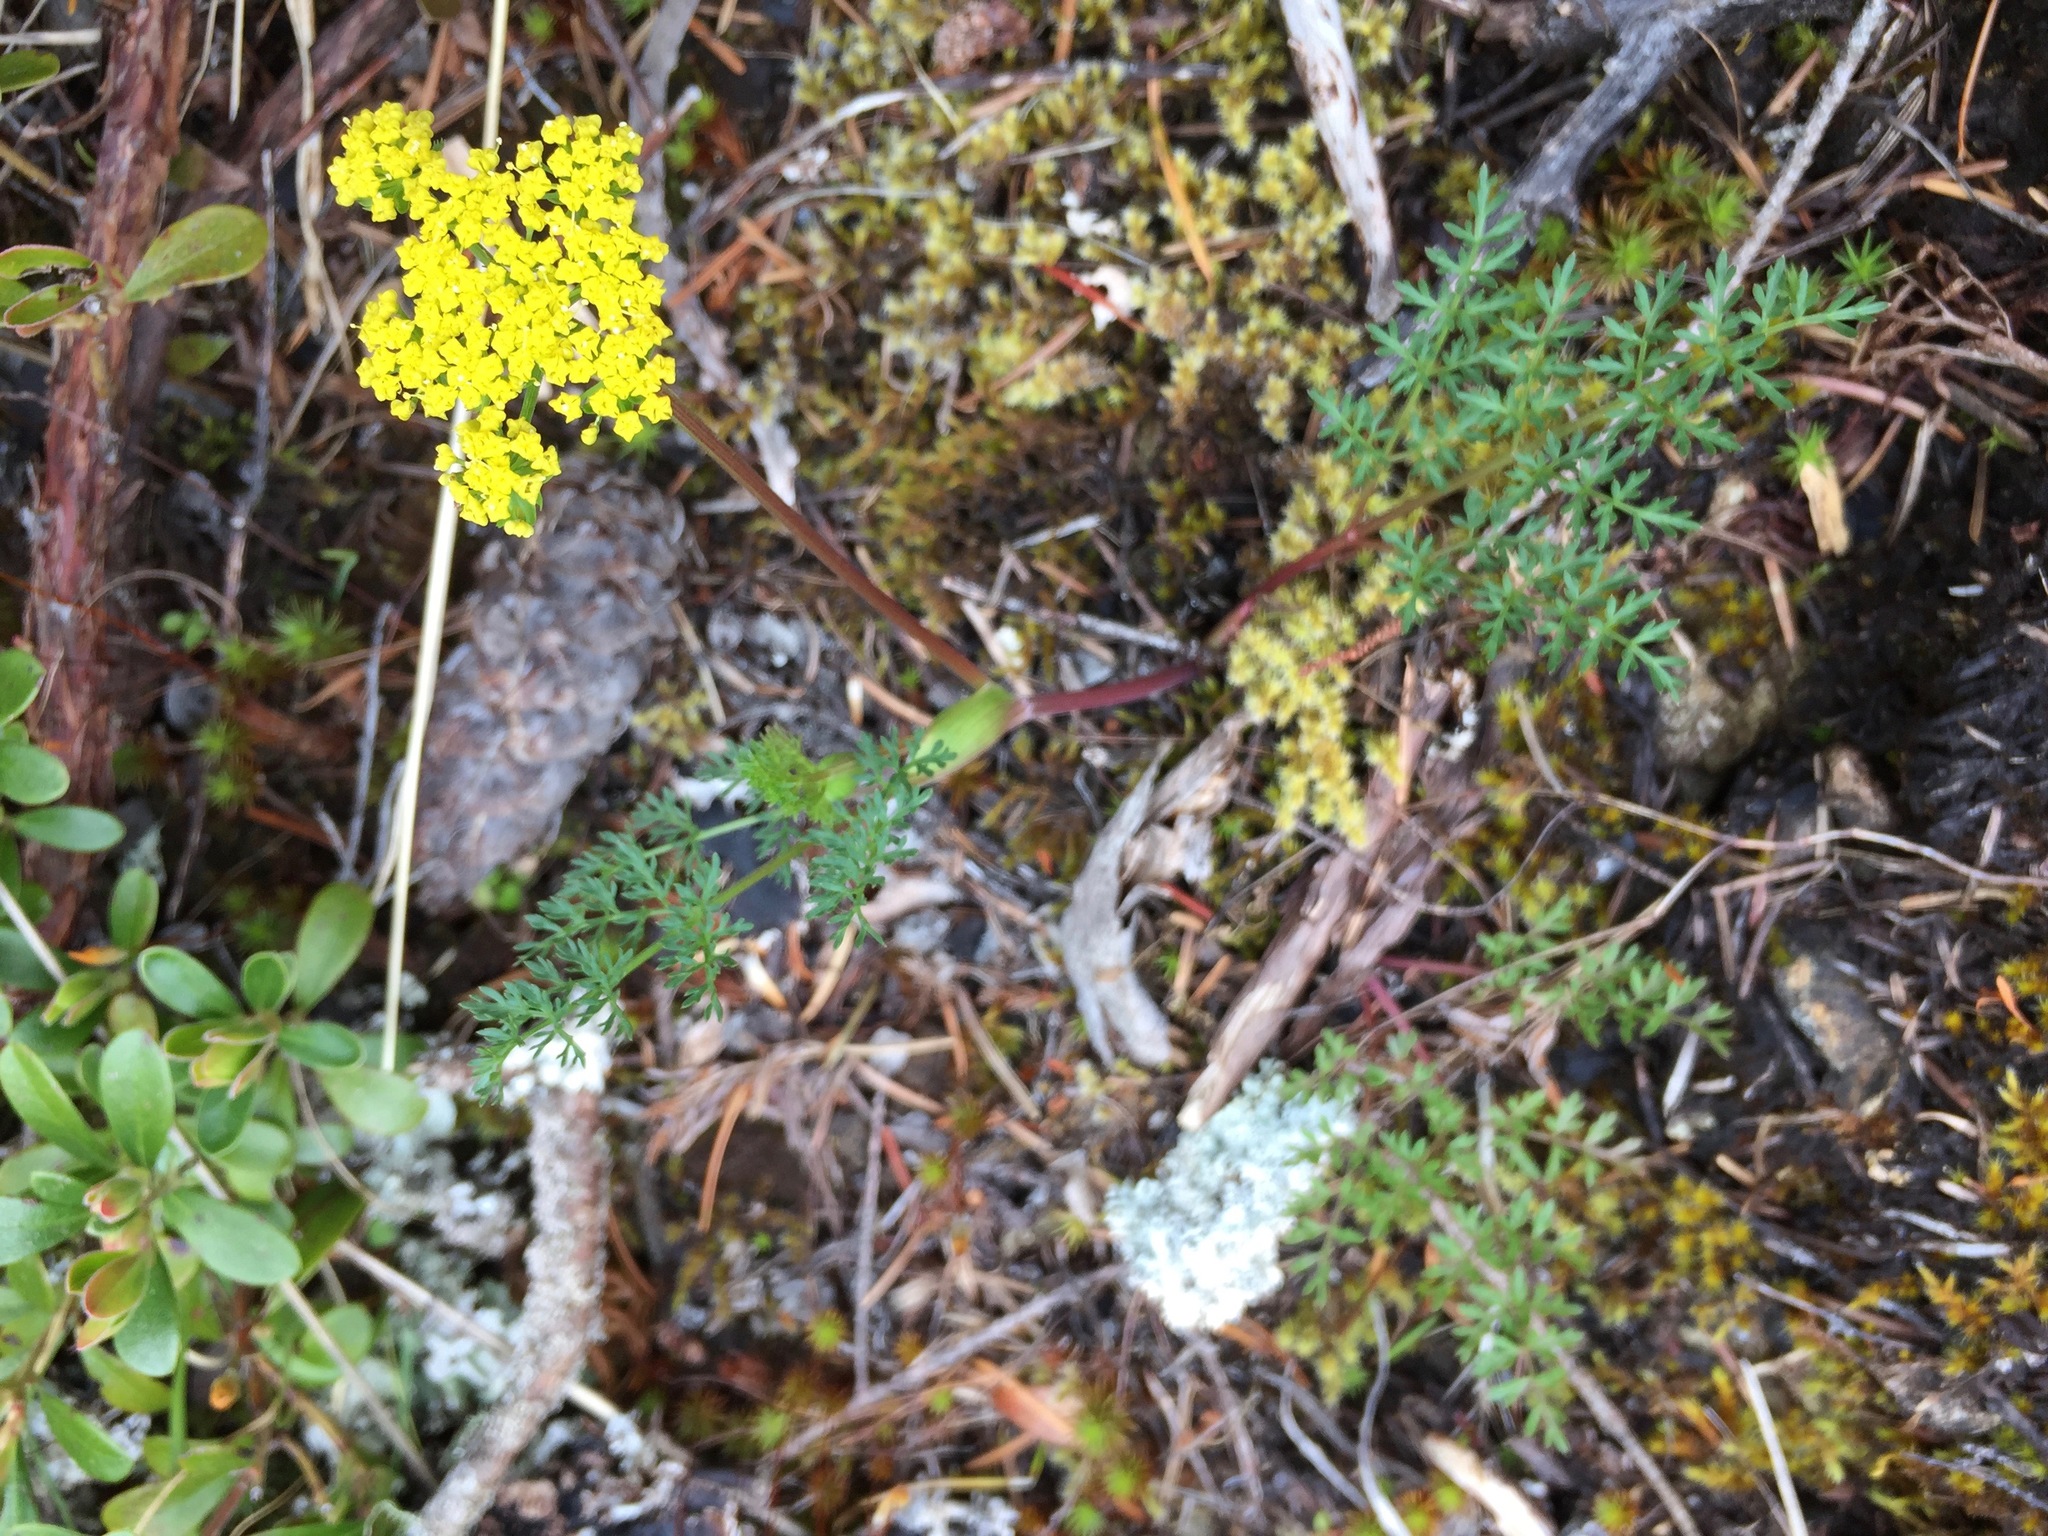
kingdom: Plantae
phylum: Tracheophyta
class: Magnoliopsida
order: Apiales
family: Apiaceae
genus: Lomatium
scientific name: Lomatium utriculatum
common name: Fine-leaf desert-parsley
